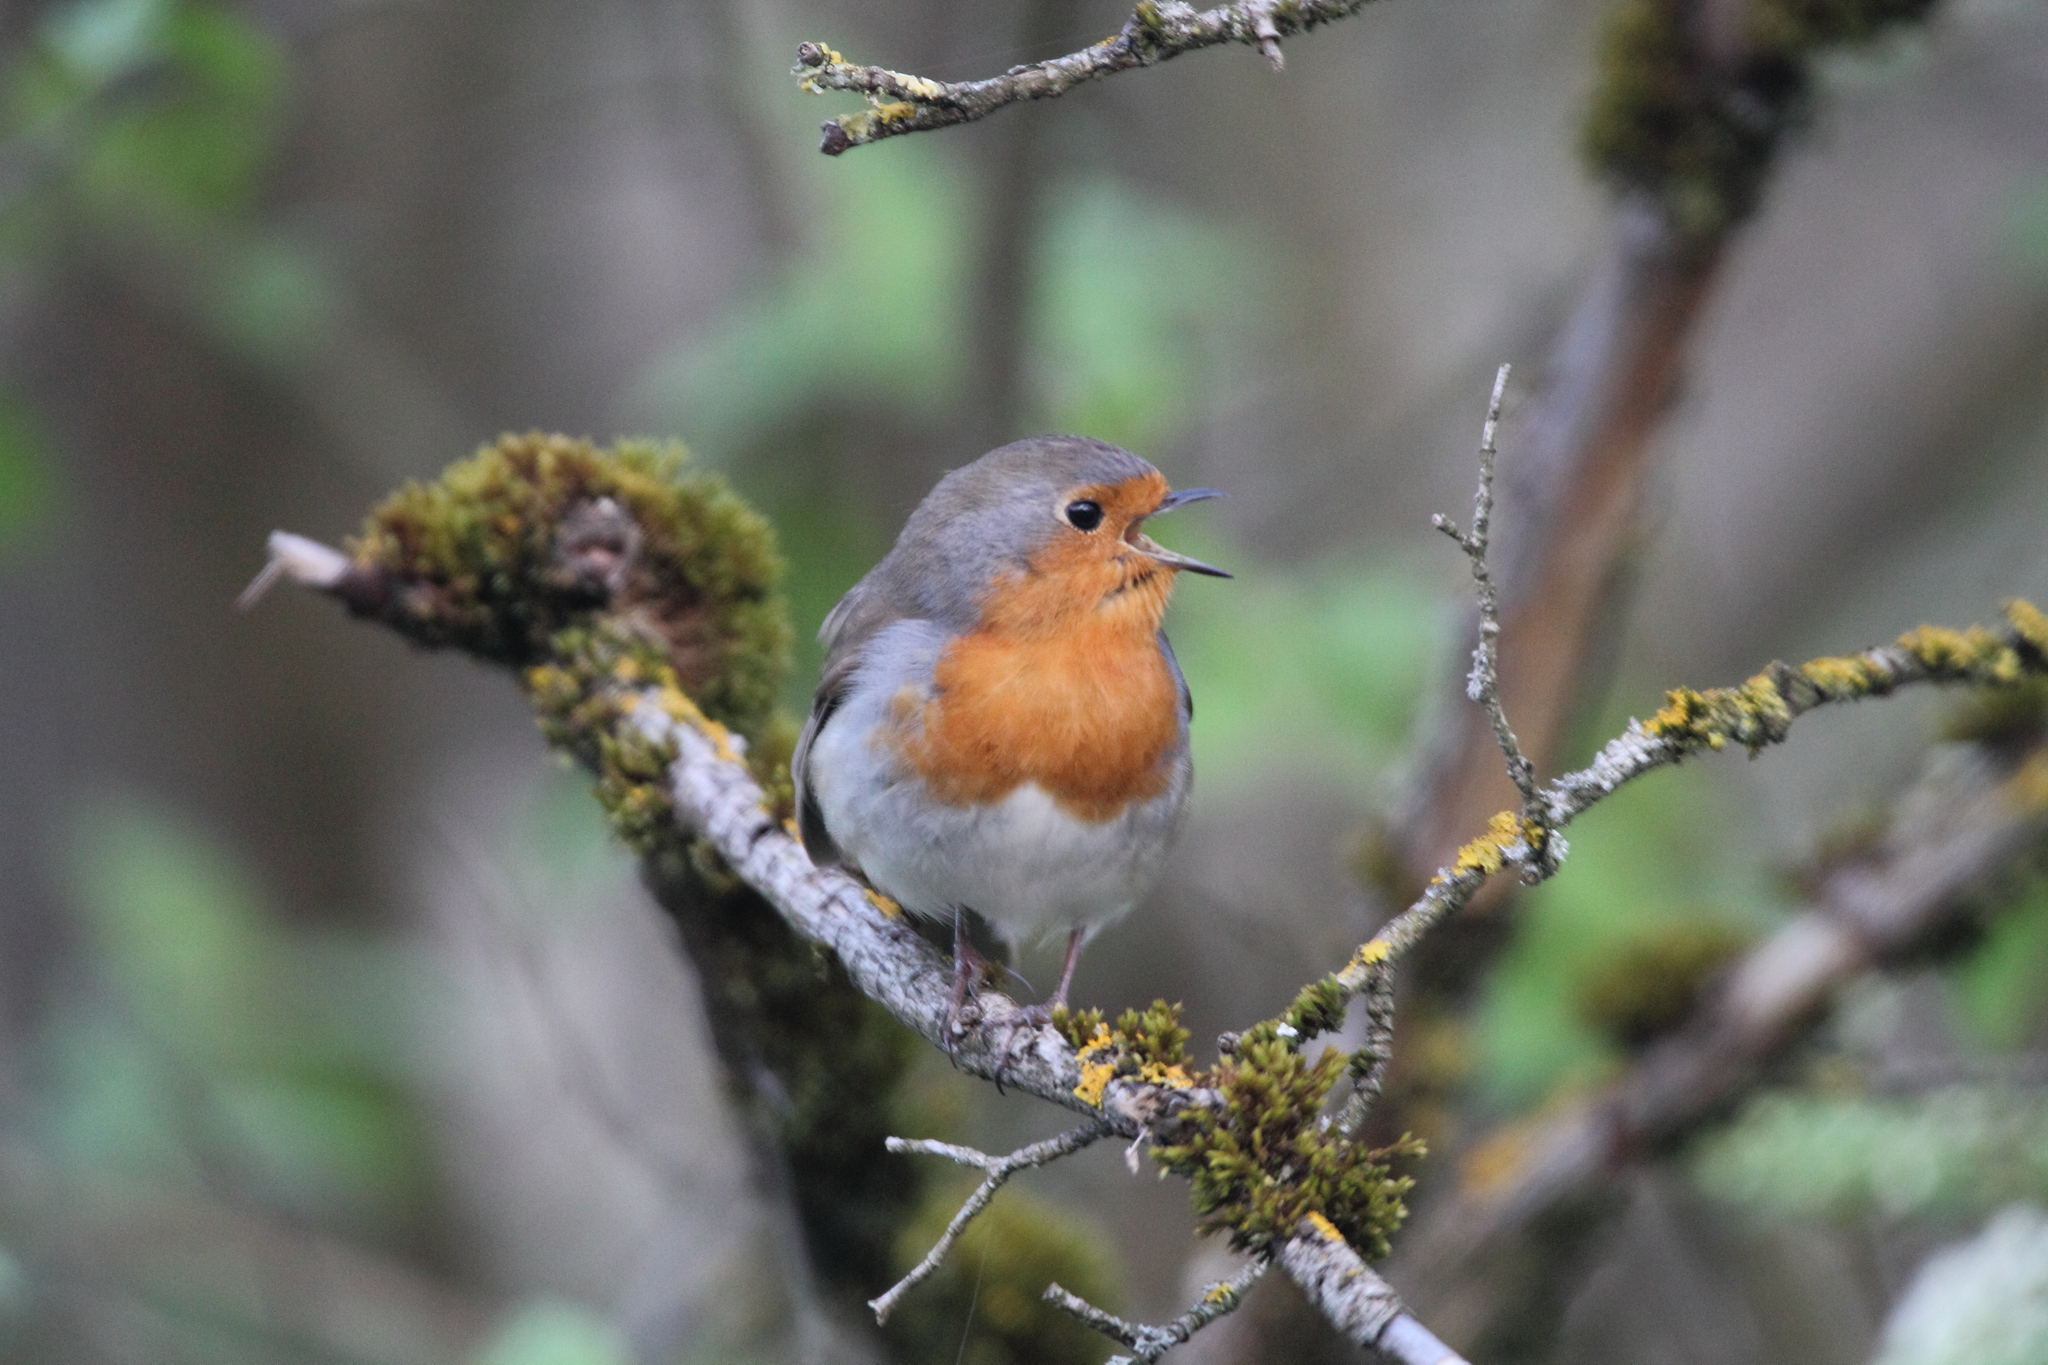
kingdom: Animalia
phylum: Chordata
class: Aves
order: Passeriformes
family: Muscicapidae
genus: Erithacus
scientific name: Erithacus rubecula
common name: European robin
